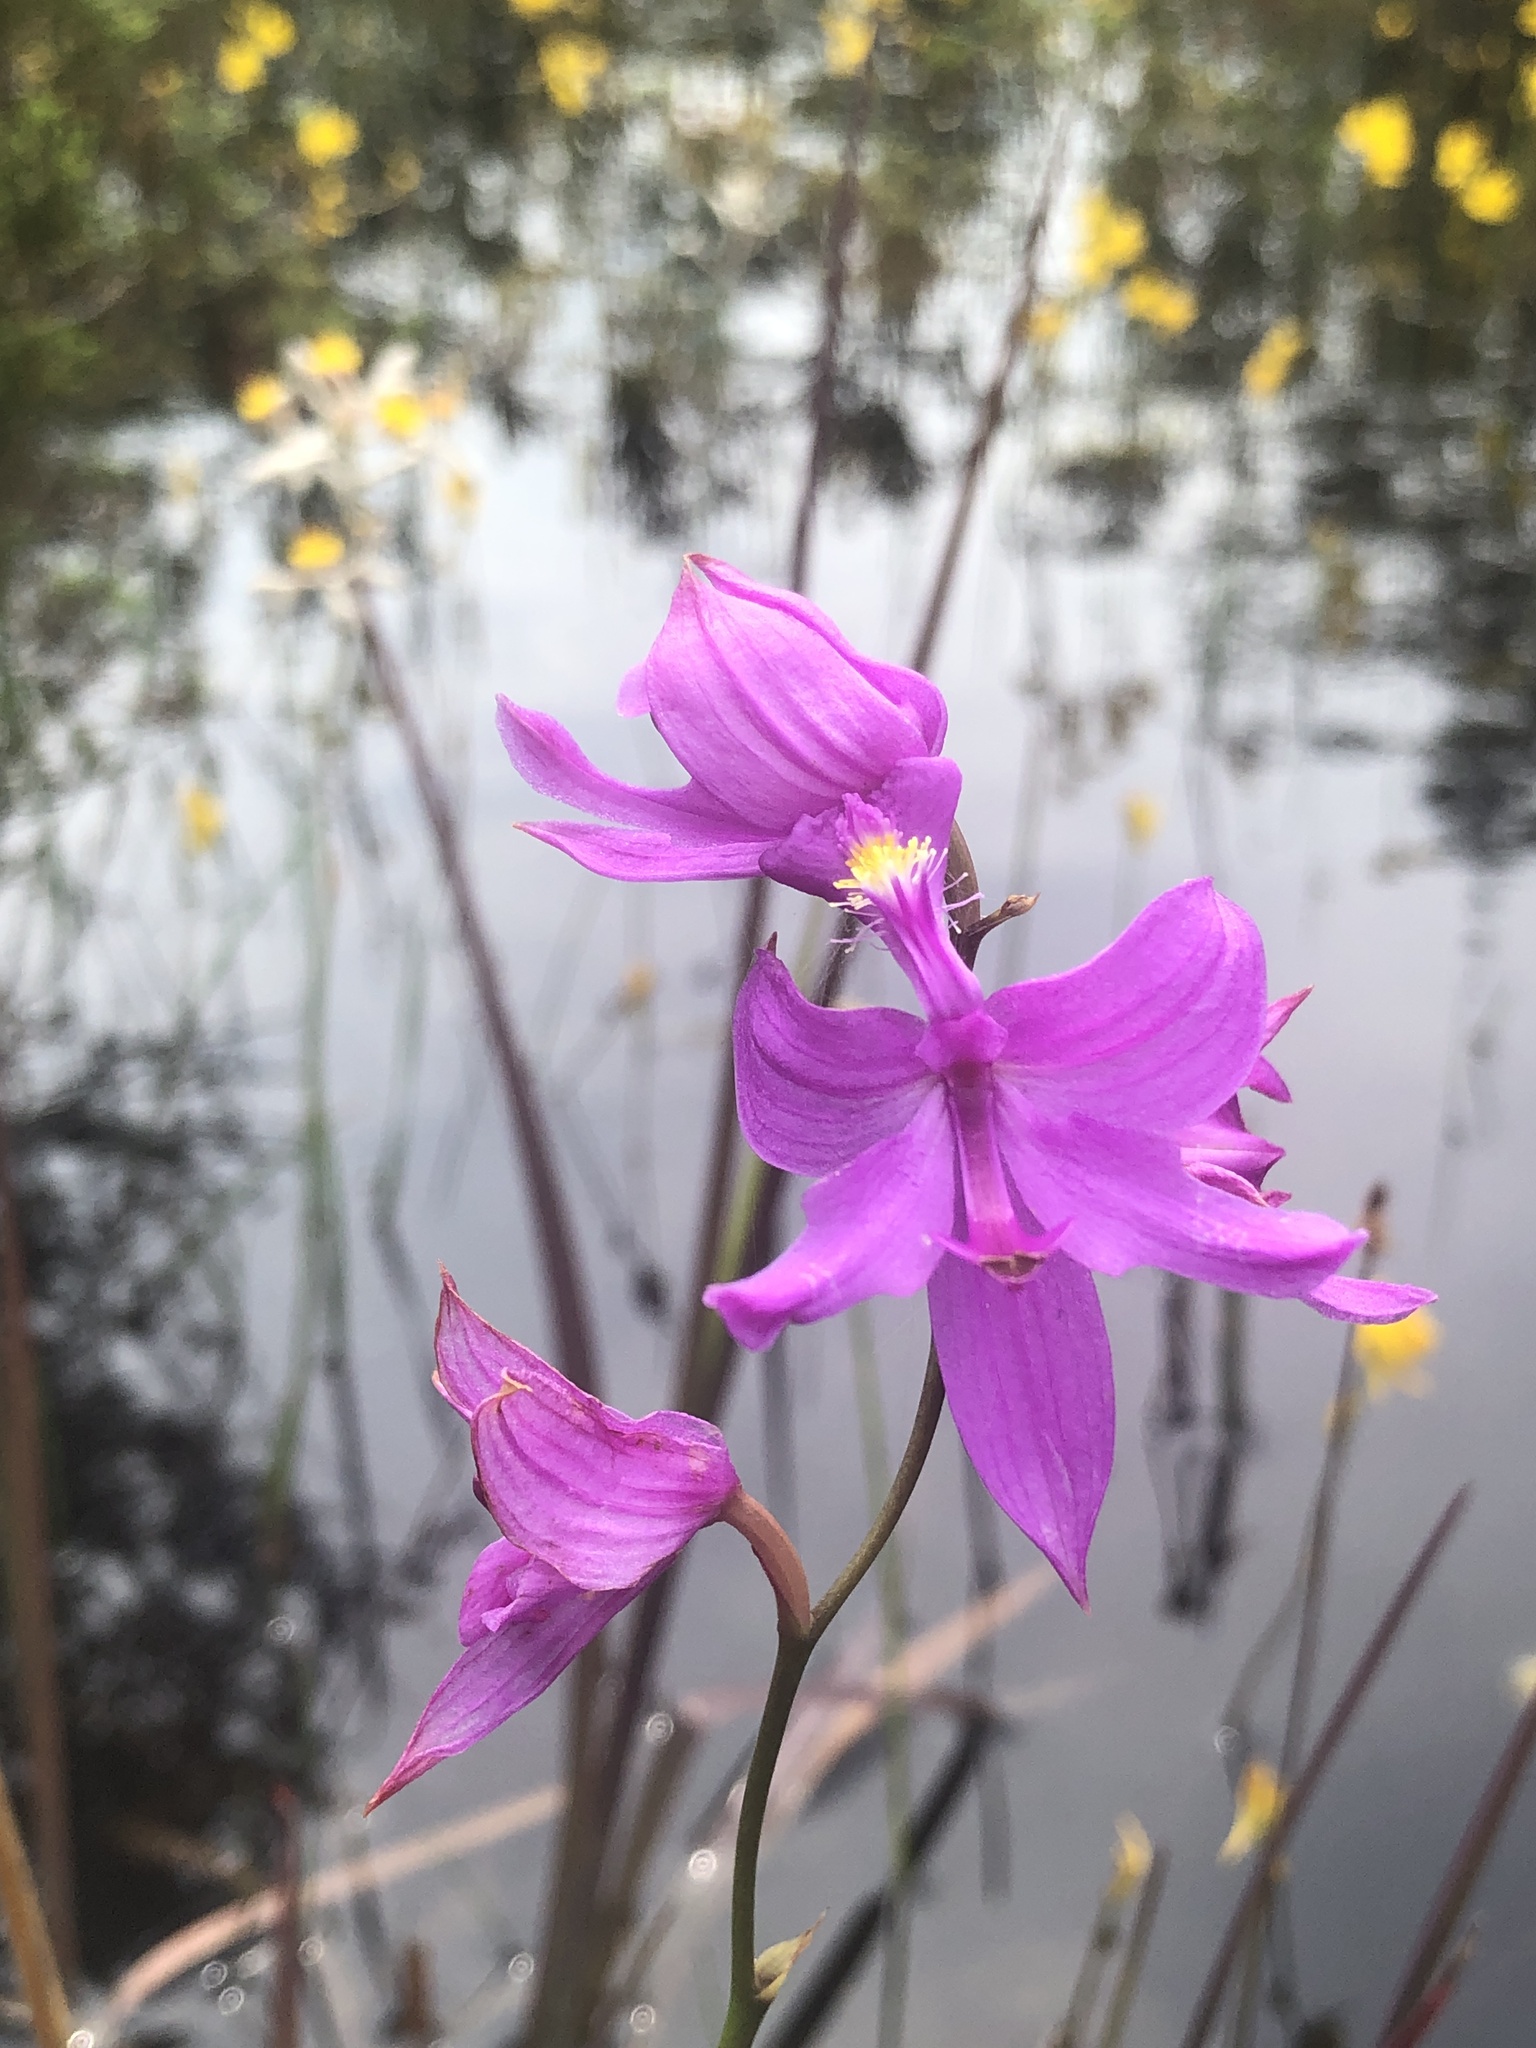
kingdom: Plantae
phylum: Tracheophyta
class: Liliopsida
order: Asparagales
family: Orchidaceae
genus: Calopogon
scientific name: Calopogon tuberosus
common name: Grass-pink
